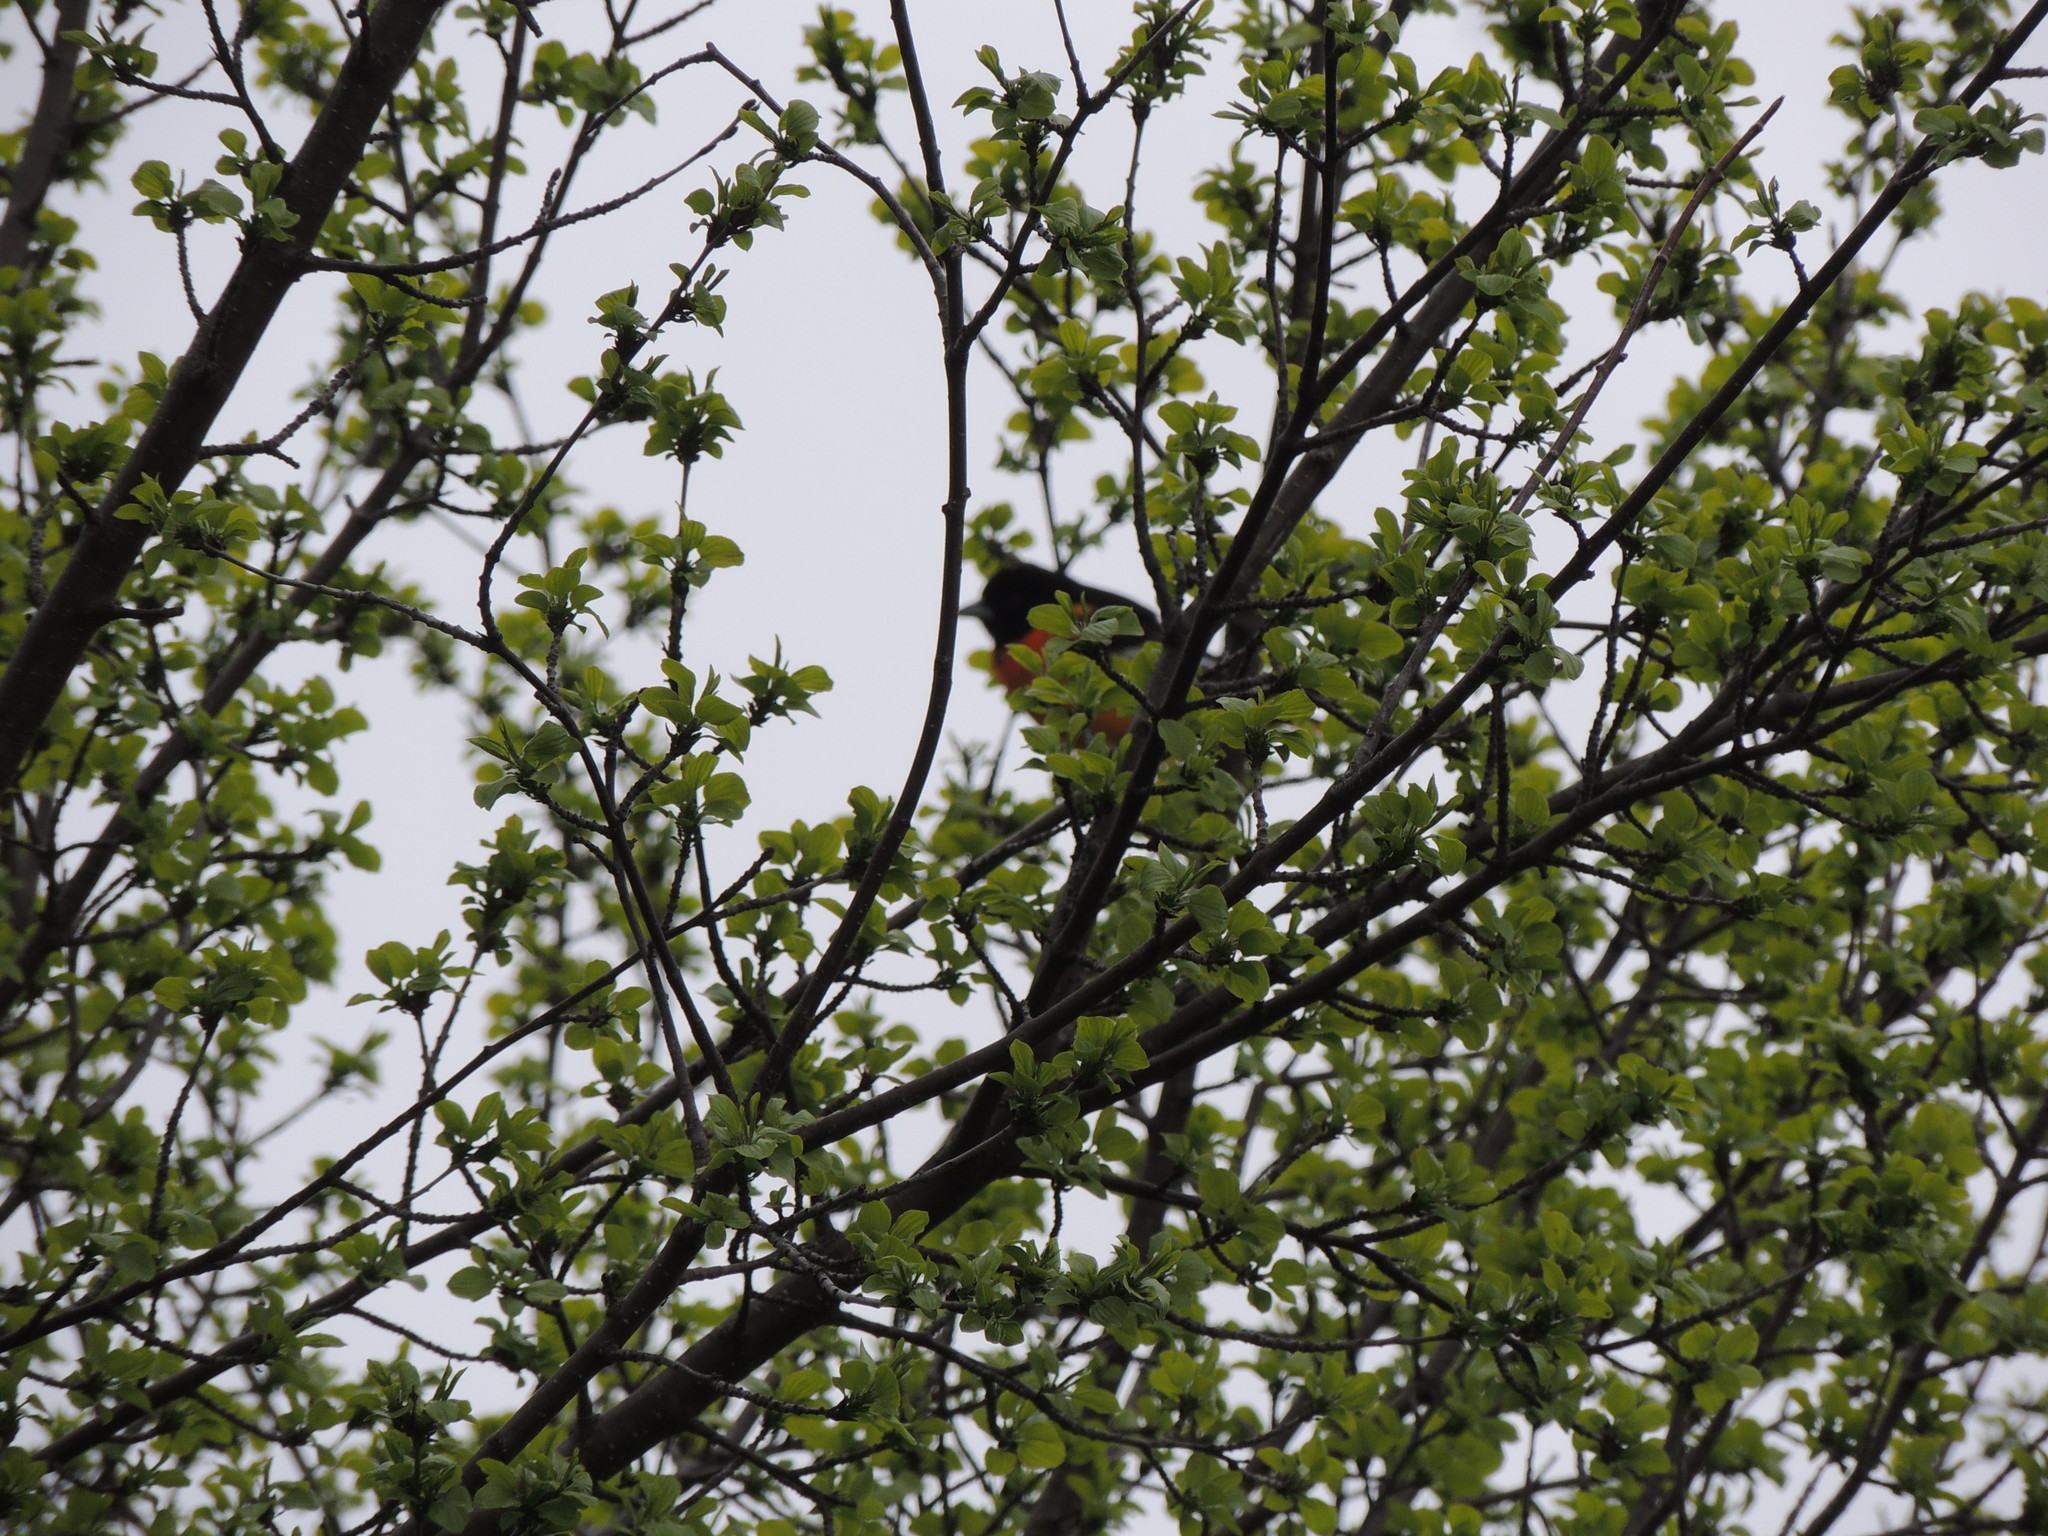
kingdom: Animalia
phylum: Chordata
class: Aves
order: Passeriformes
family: Icteridae
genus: Icterus
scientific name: Icterus galbula
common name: Baltimore oriole
